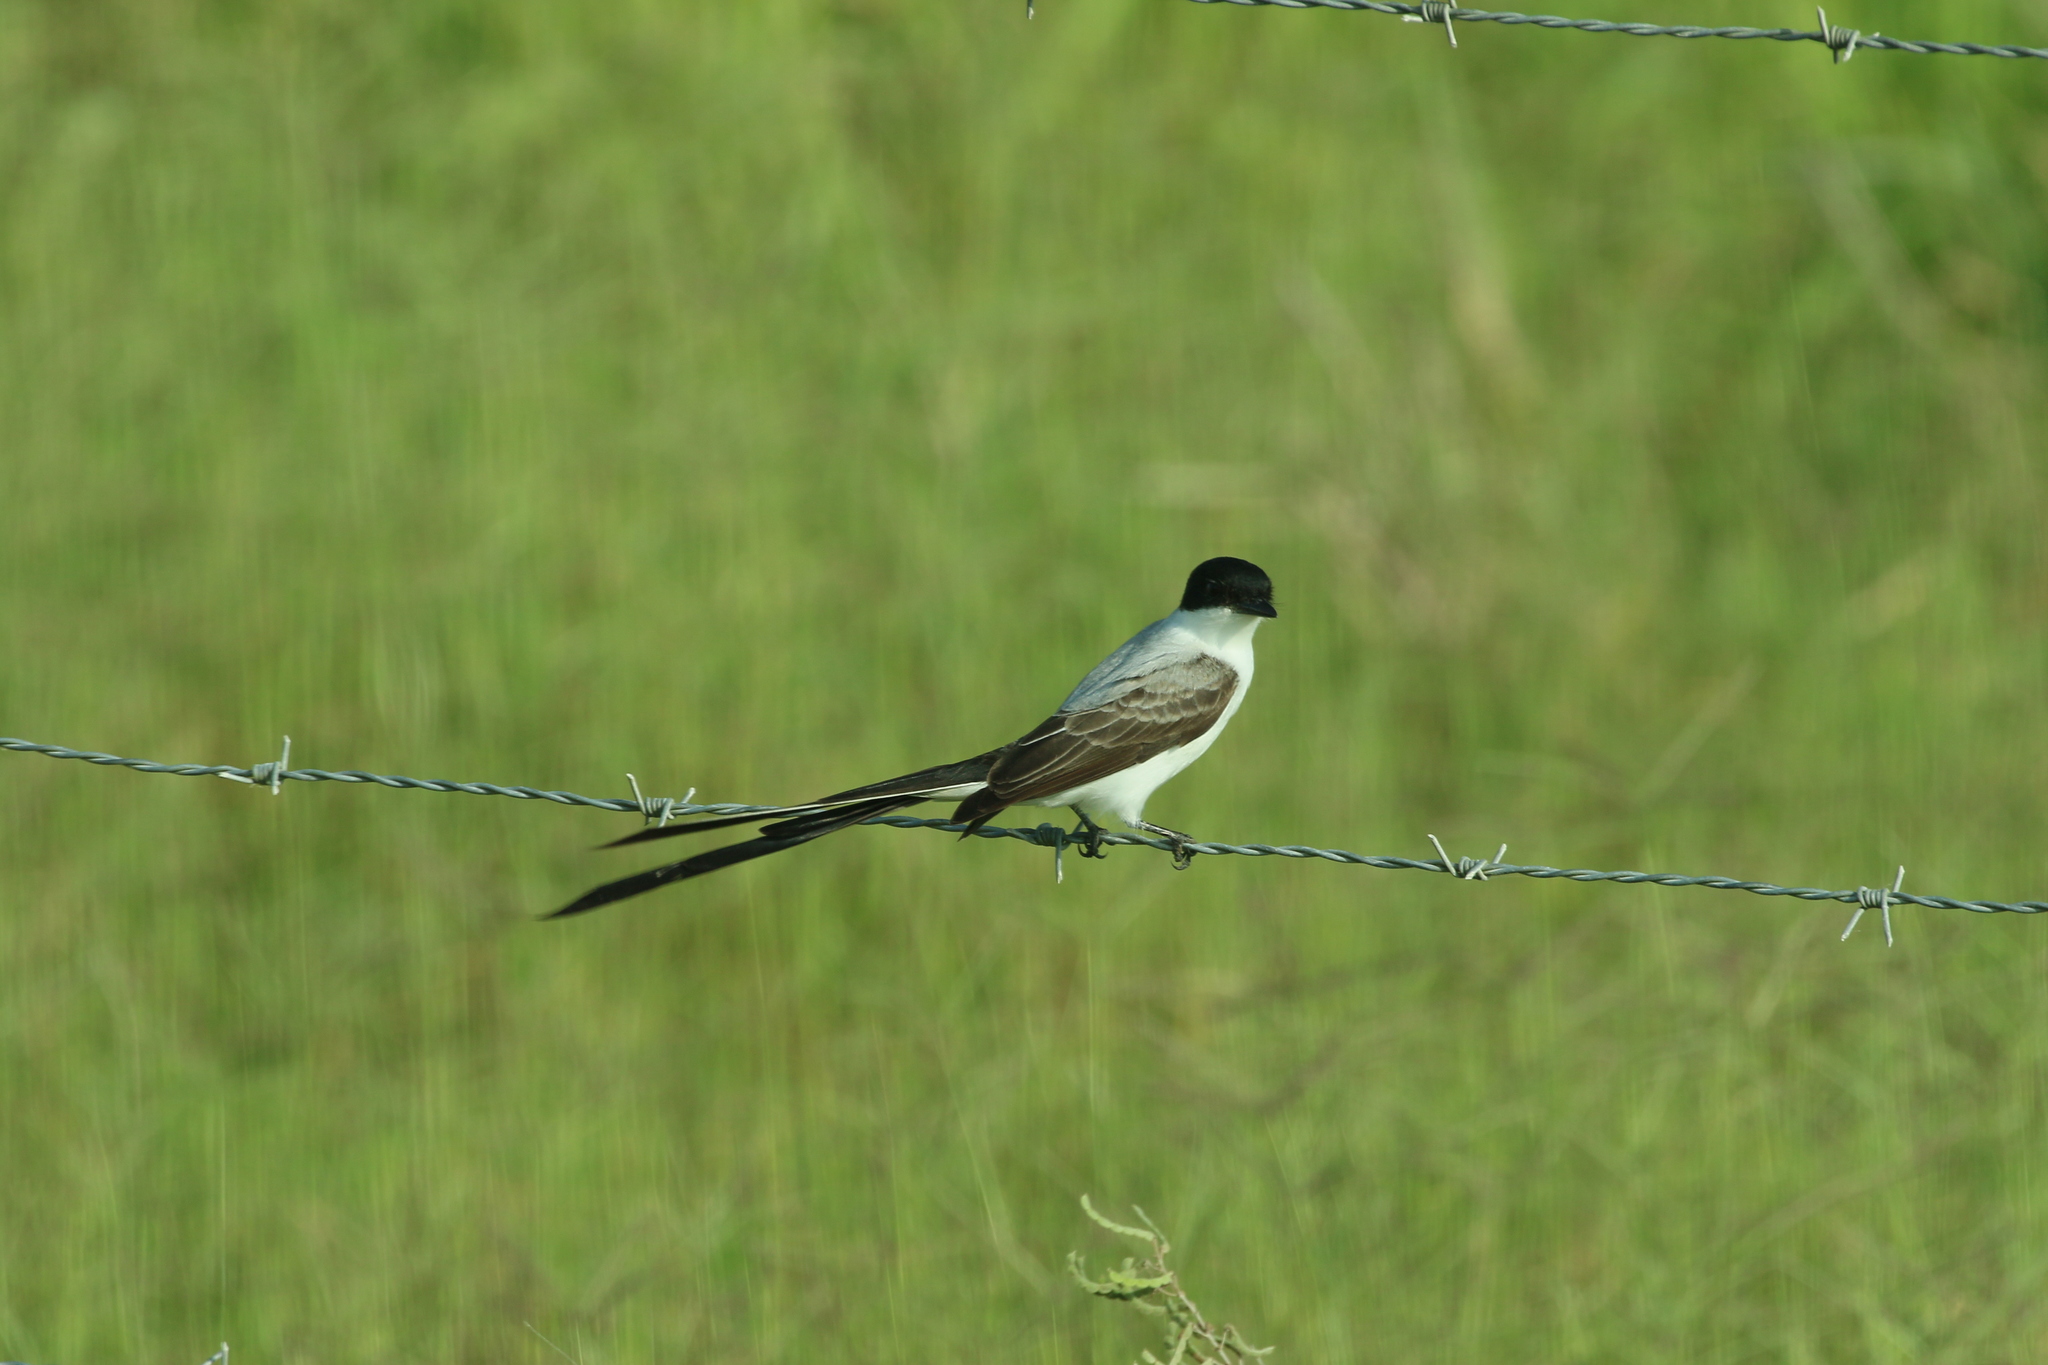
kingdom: Animalia
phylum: Chordata
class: Aves
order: Passeriformes
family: Tyrannidae
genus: Tyrannus
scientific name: Tyrannus savana
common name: Fork-tailed flycatcher
